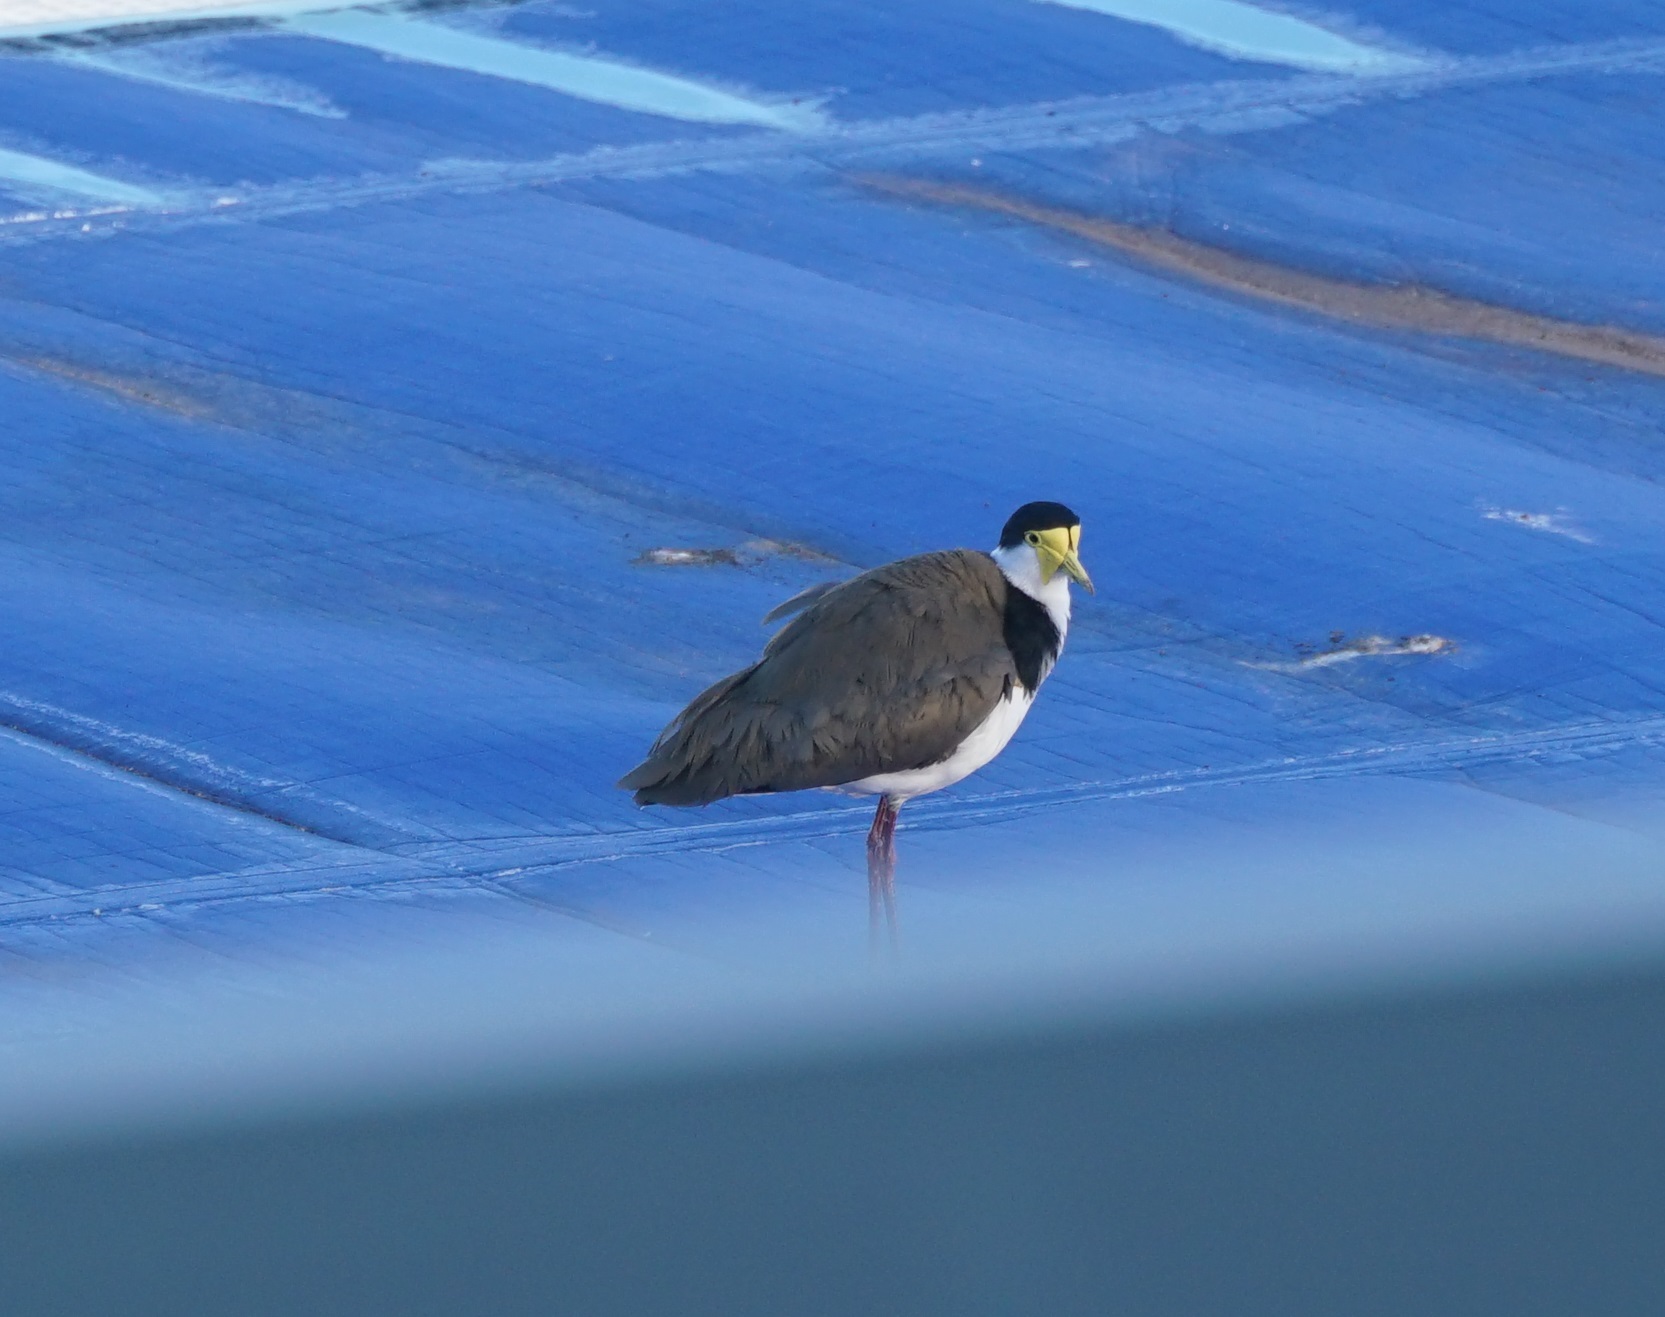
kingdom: Animalia
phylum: Chordata
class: Aves
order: Charadriiformes
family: Charadriidae
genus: Vanellus
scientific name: Vanellus miles
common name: Masked lapwing
